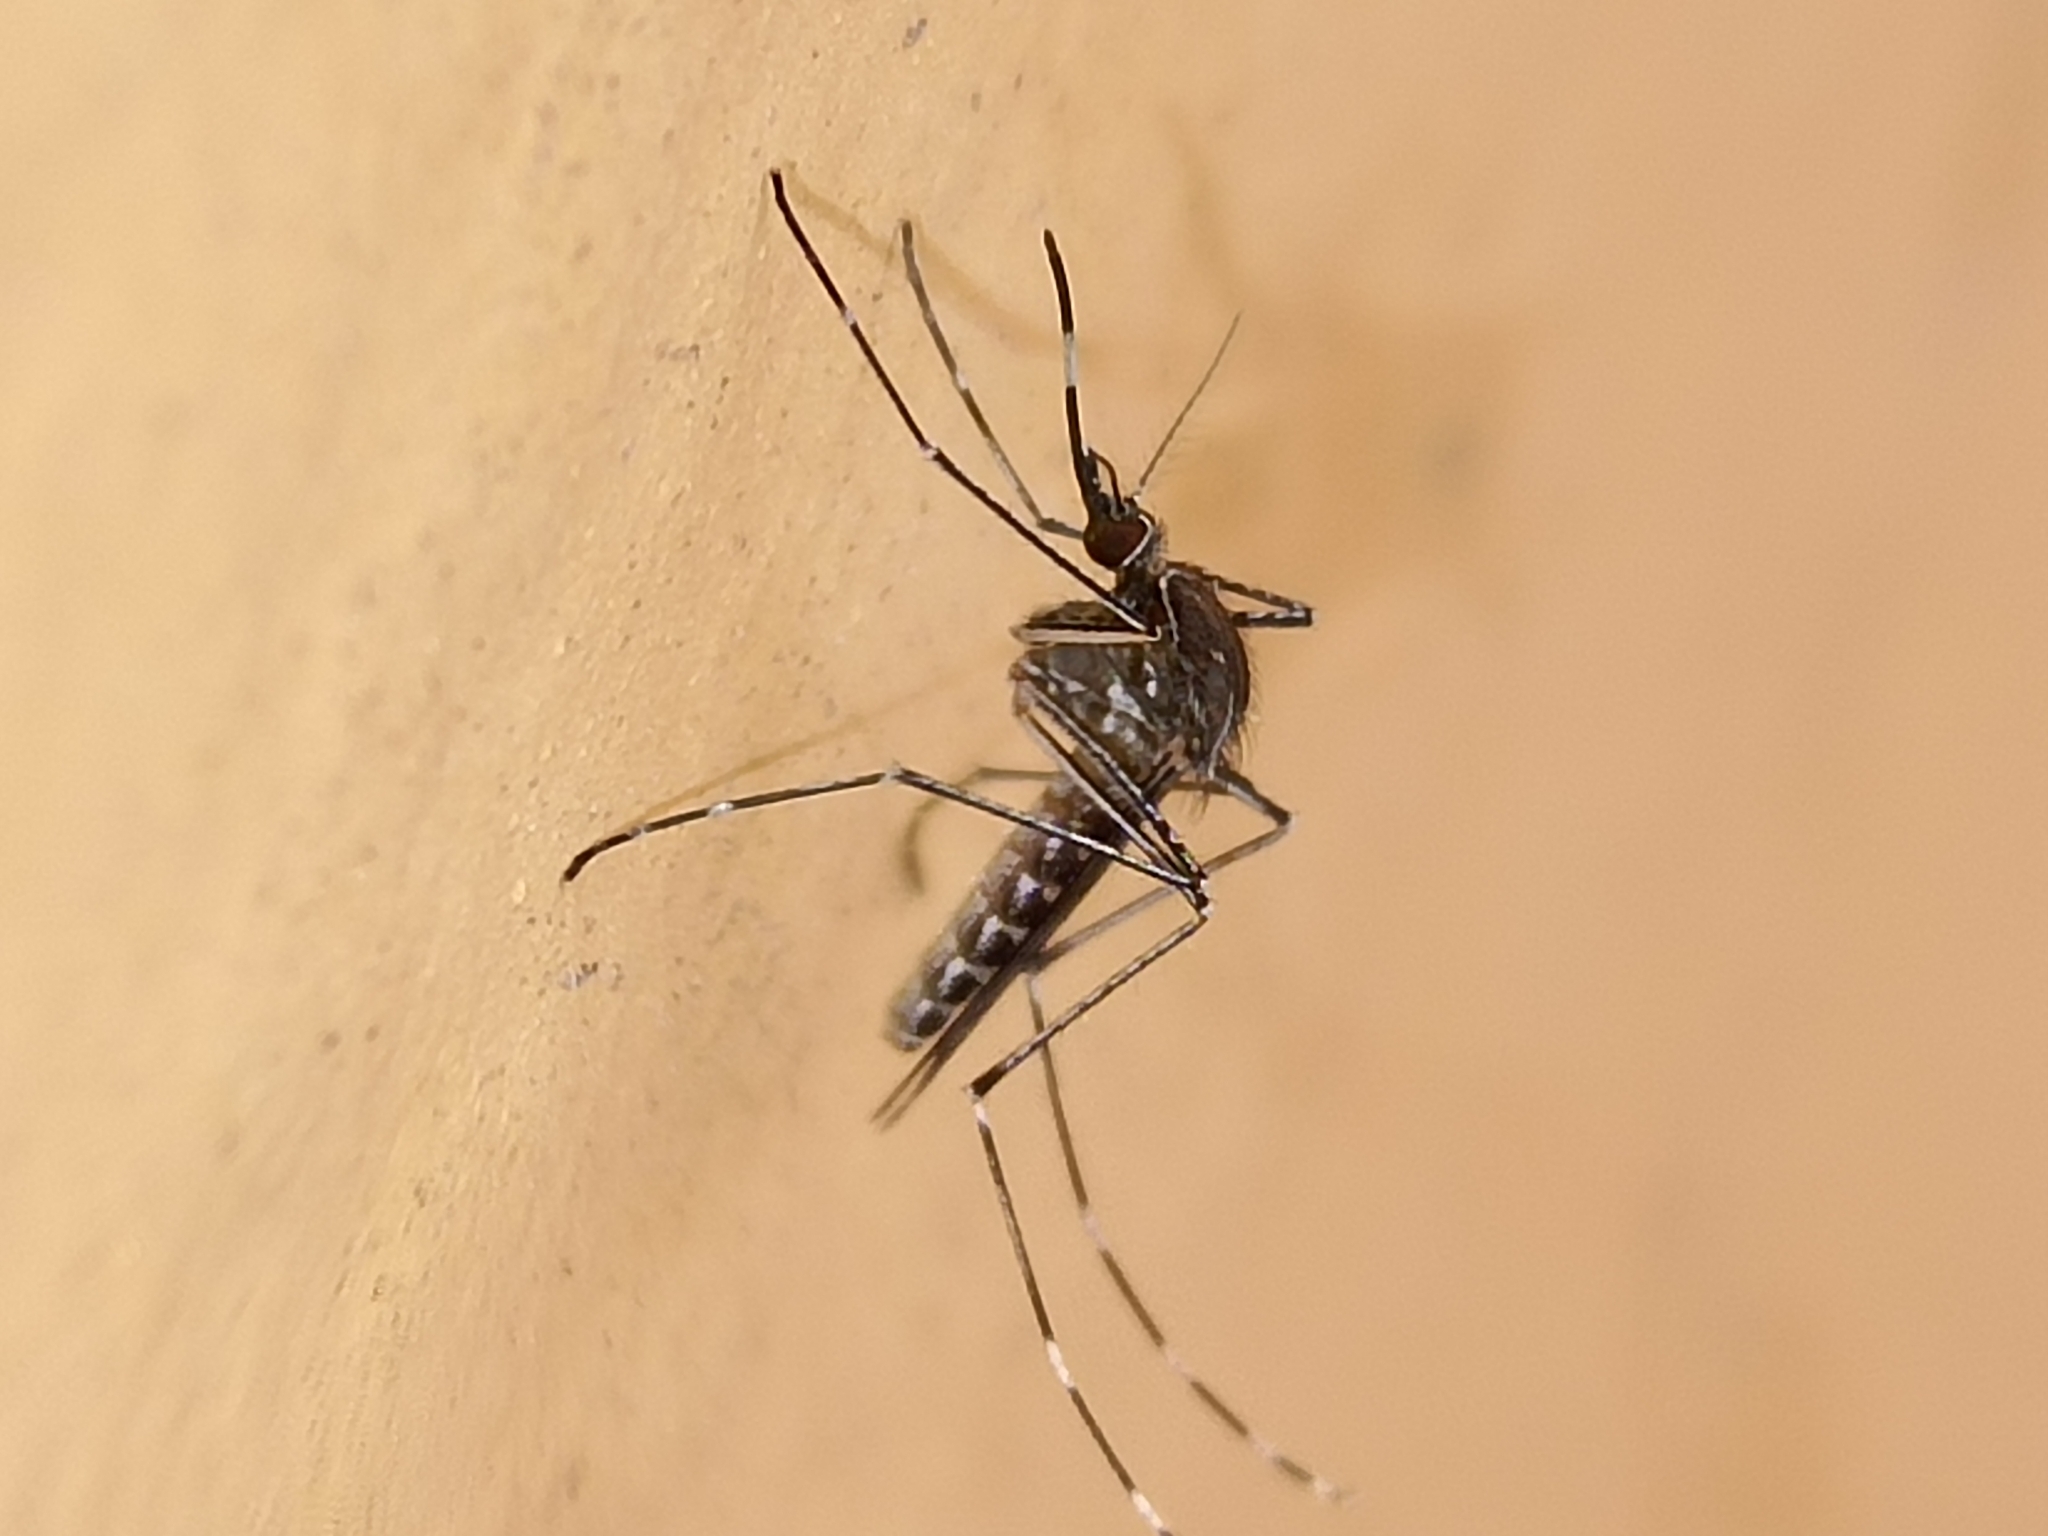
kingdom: Animalia
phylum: Arthropoda
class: Insecta
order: Diptera
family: Culicidae
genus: Culex
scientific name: Culex tarsalis
